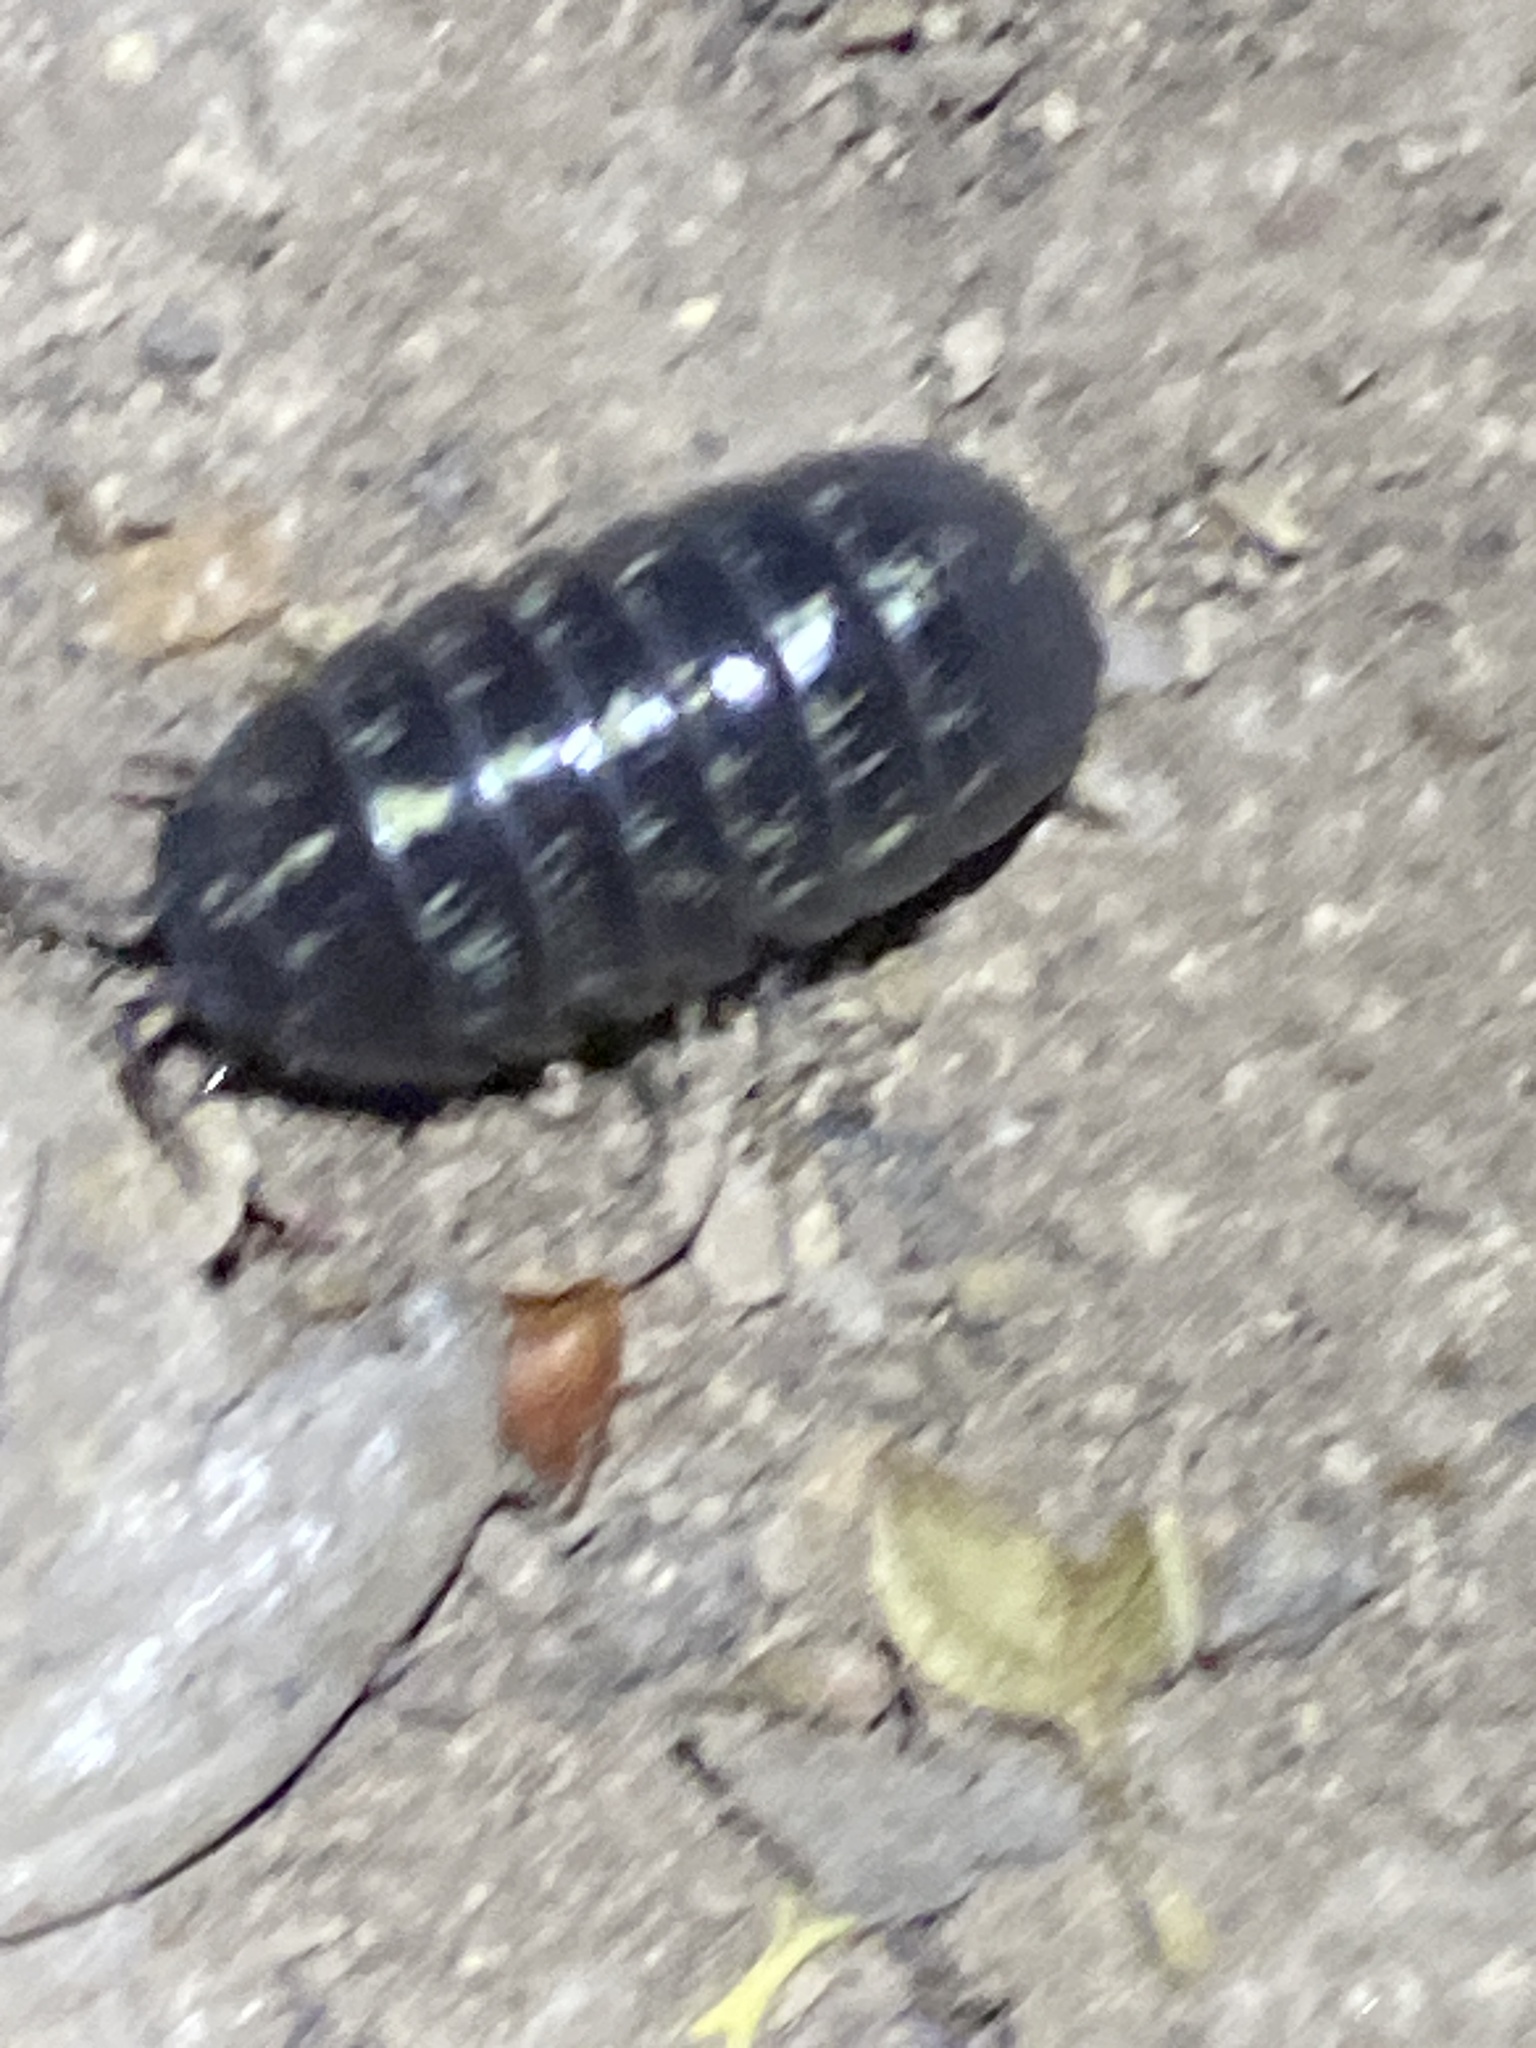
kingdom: Animalia
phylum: Arthropoda
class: Malacostraca
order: Isopoda
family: Armadillidiidae
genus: Armadillidium
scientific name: Armadillidium vulgare
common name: Common pill woodlouse
